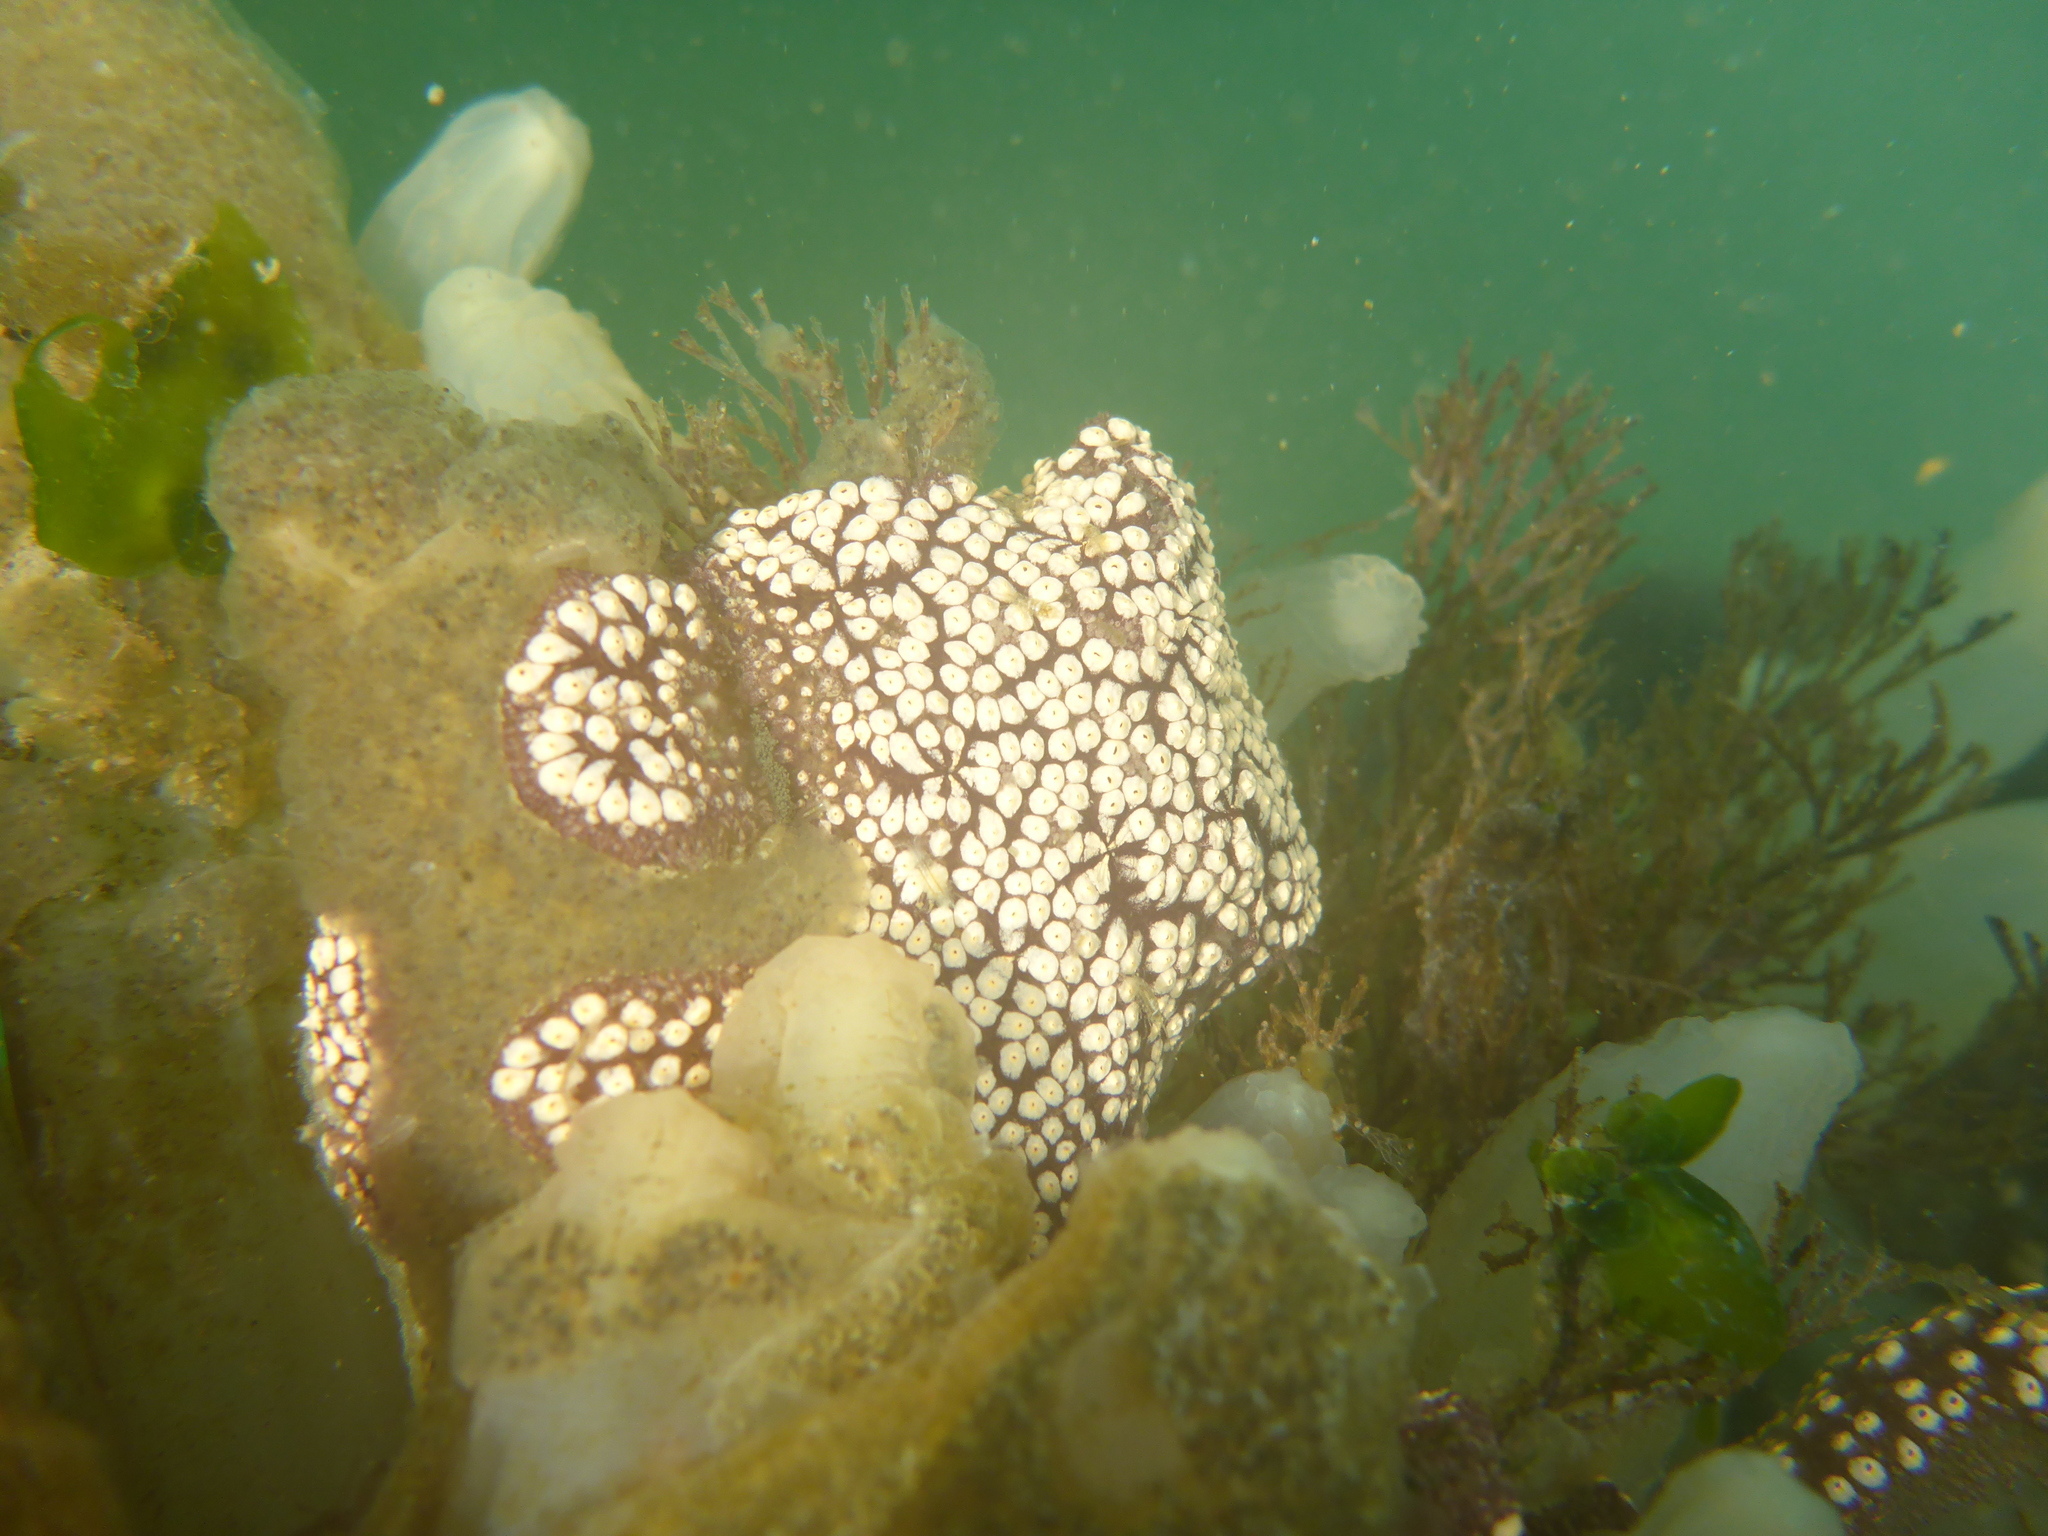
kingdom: Animalia
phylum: Chordata
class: Ascidiacea
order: Stolidobranchia
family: Styelidae
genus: Botrylloides
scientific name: Botrylloides diegensis
